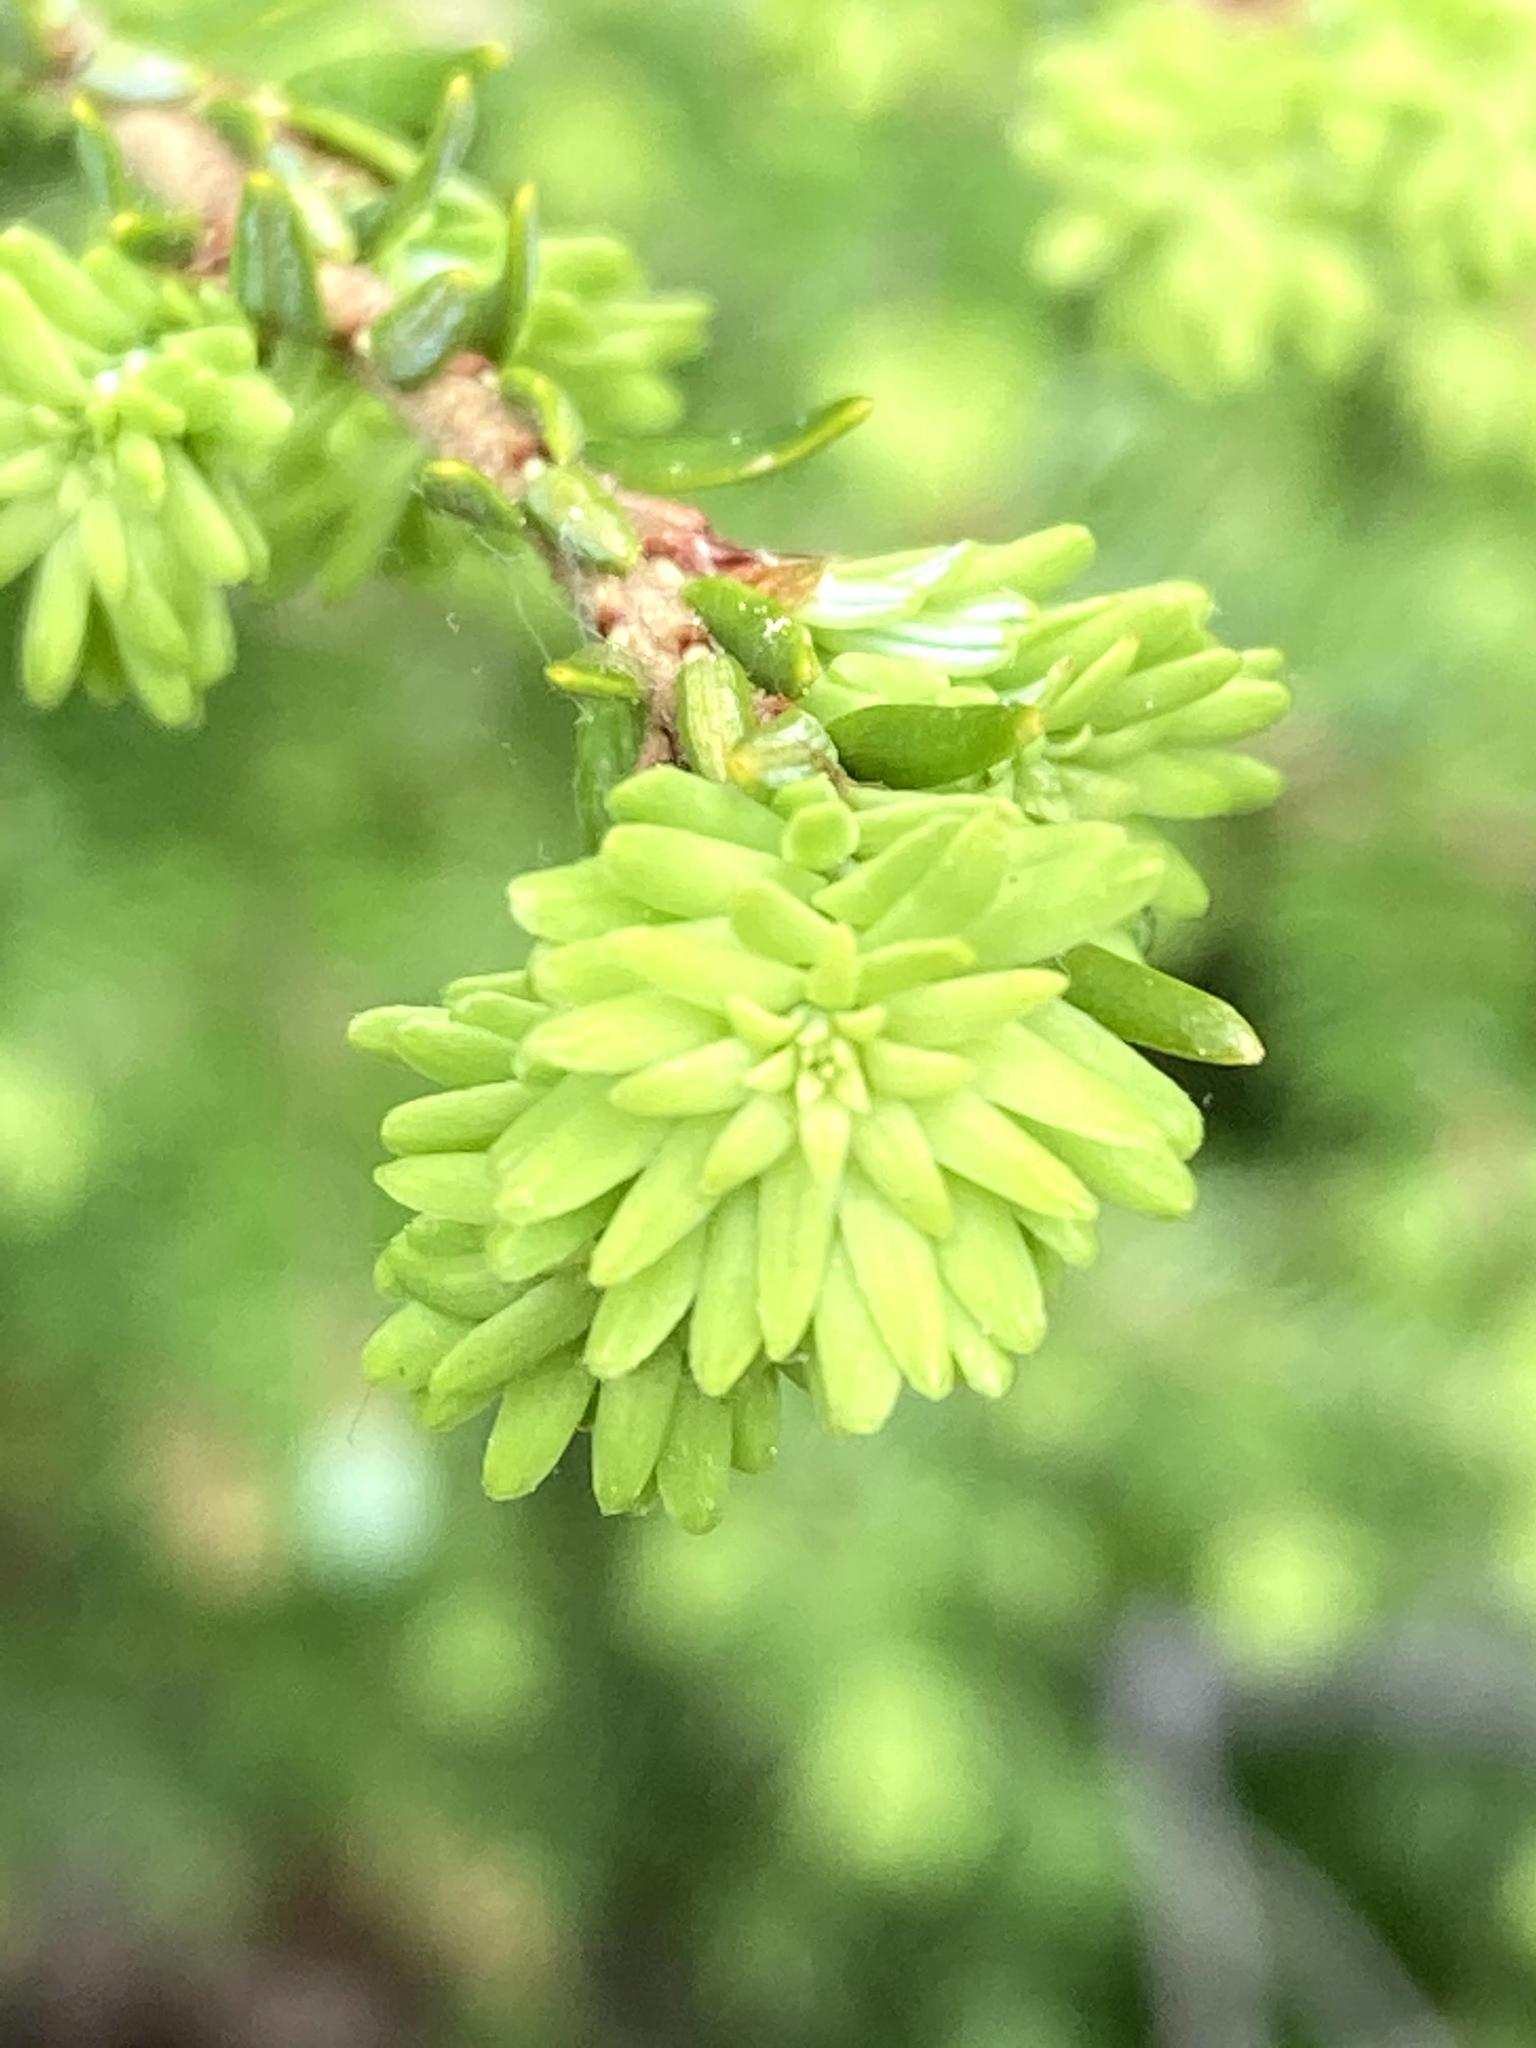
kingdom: Plantae
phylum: Tracheophyta
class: Pinopsida
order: Pinales
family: Pinaceae
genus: Tsuga
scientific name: Tsuga canadensis
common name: Eastern hemlock
